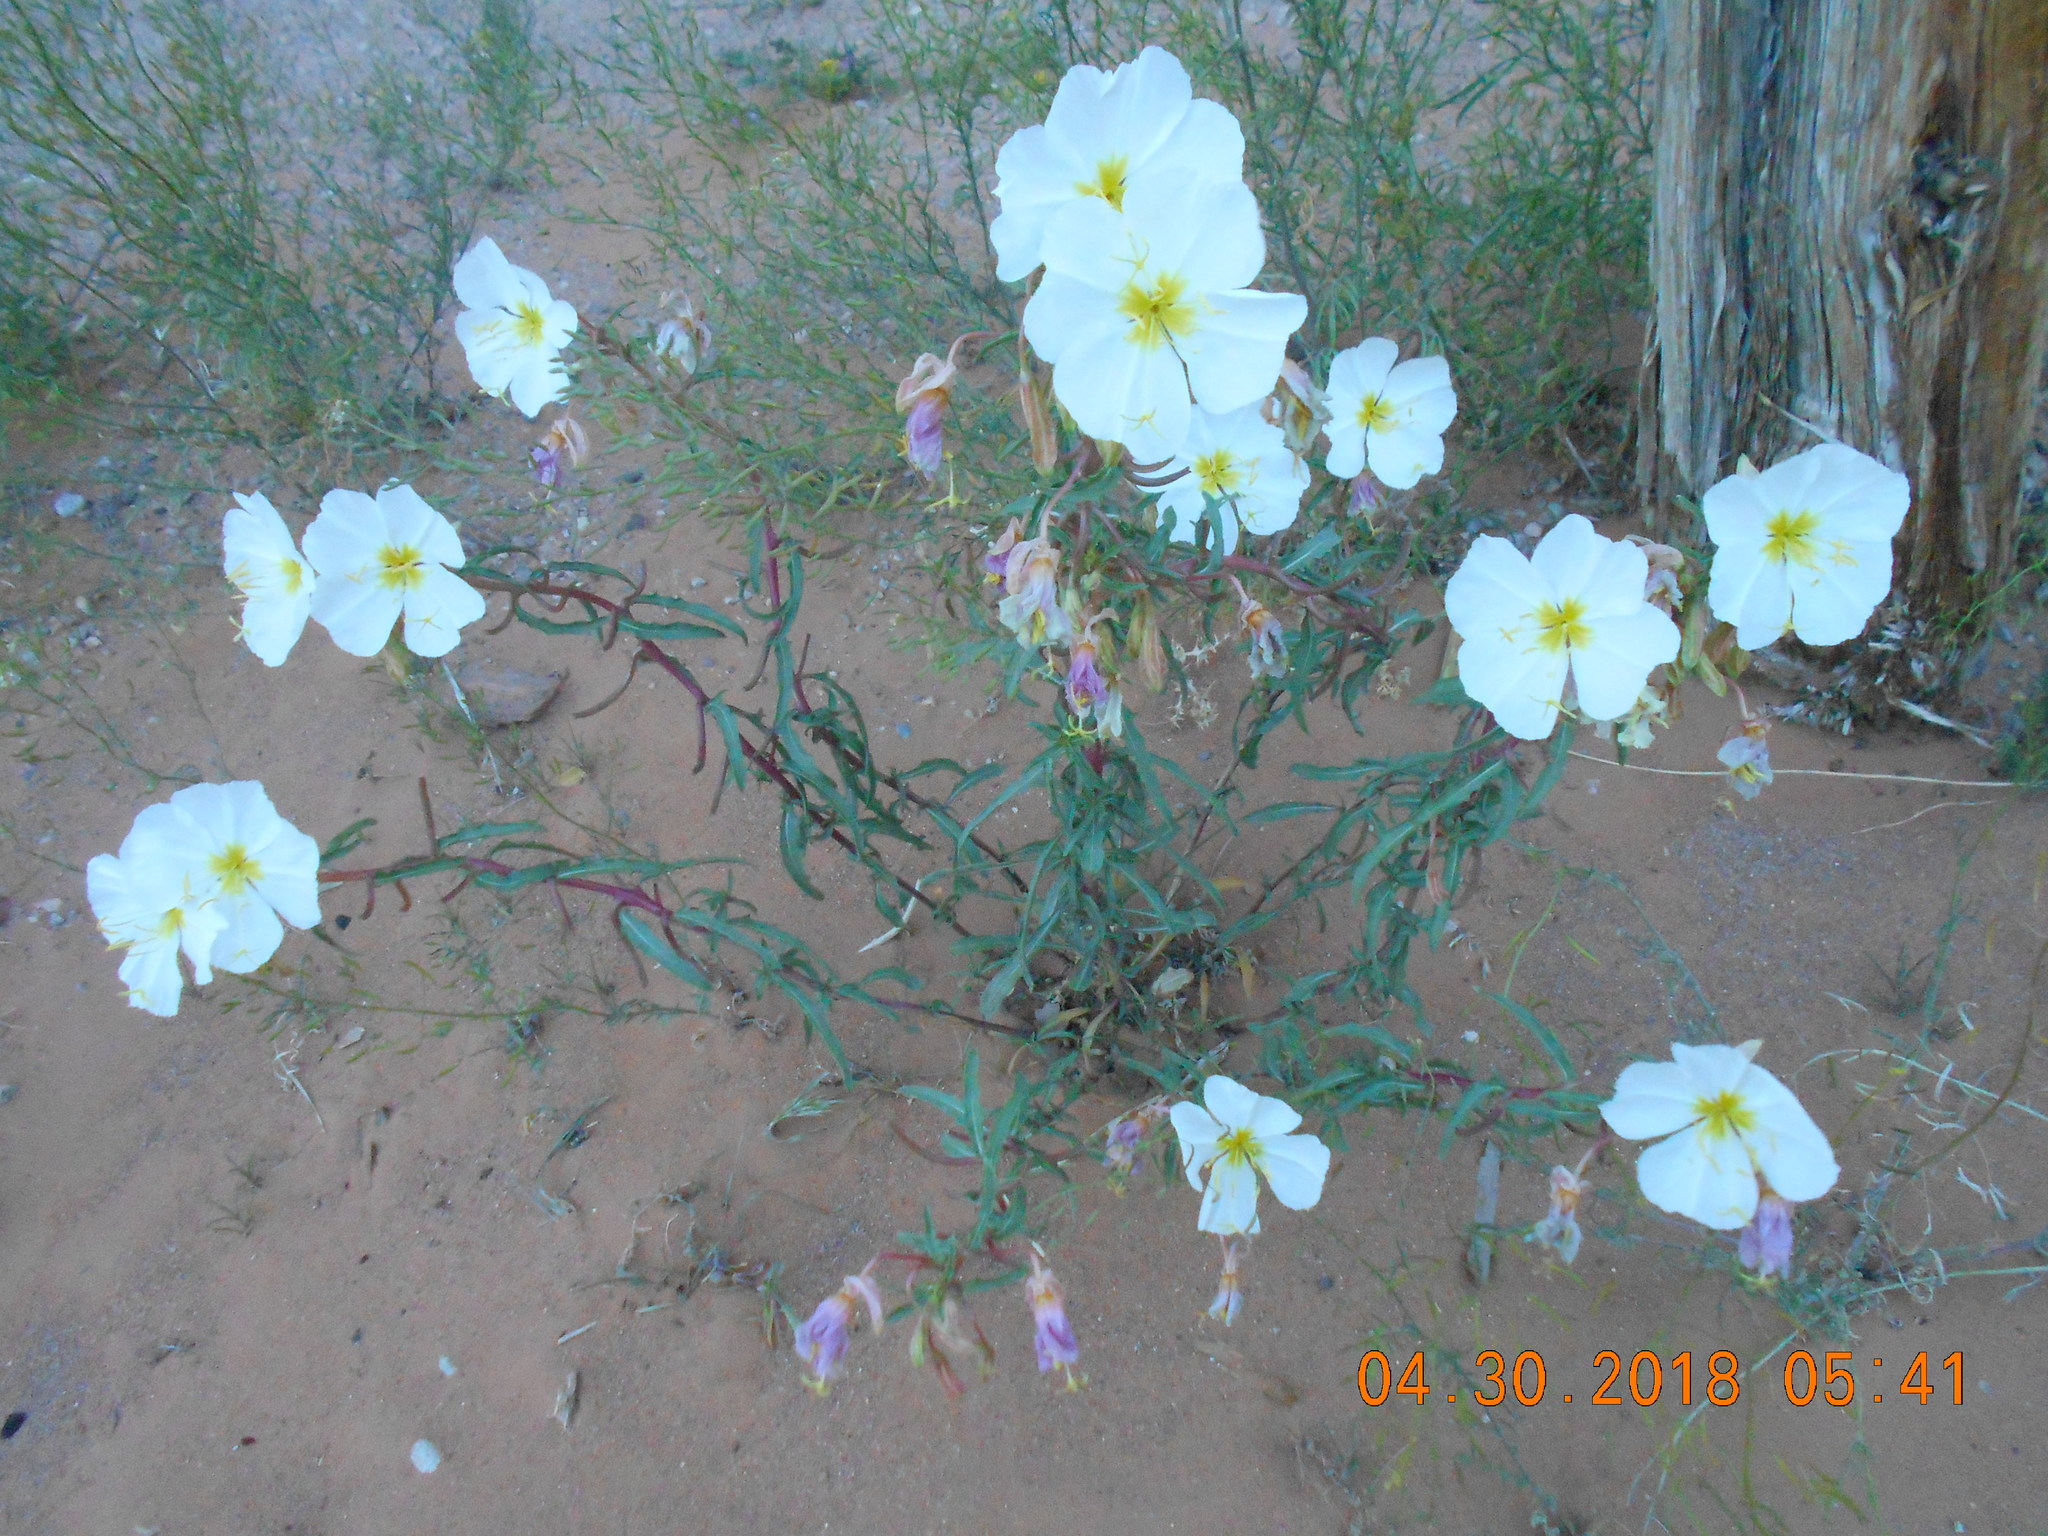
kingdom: Plantae
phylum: Tracheophyta
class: Magnoliopsida
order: Myrtales
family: Onagraceae
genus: Oenothera
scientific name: Oenothera pallida
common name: Pale evening-primrose
